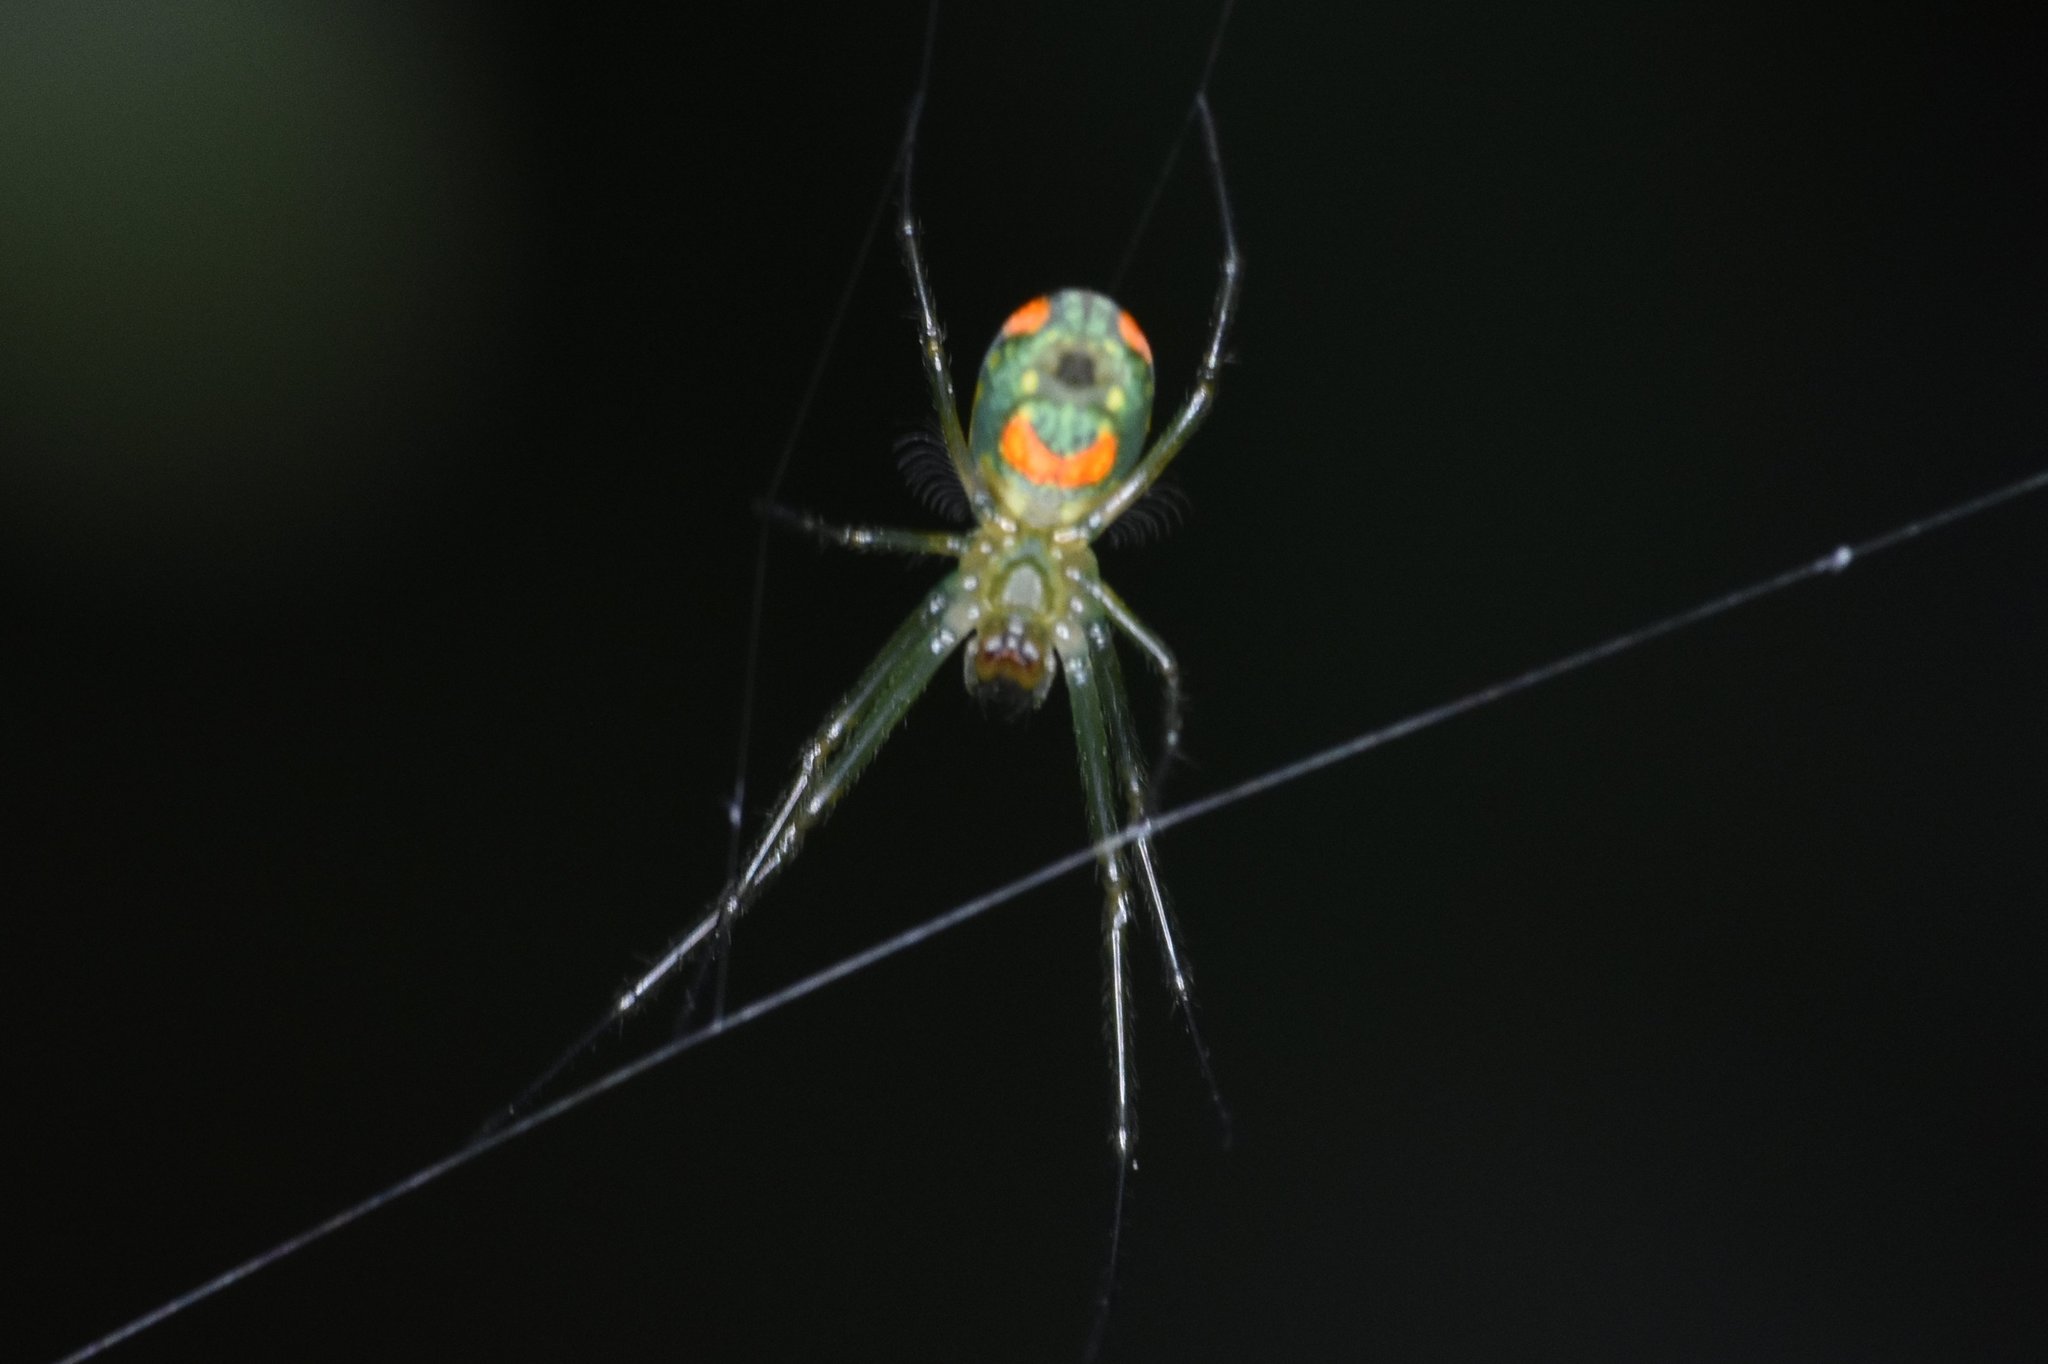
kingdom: Animalia
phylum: Arthropoda
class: Arachnida
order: Araneae
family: Tetragnathidae
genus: Leucauge
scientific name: Leucauge argyrobapta
